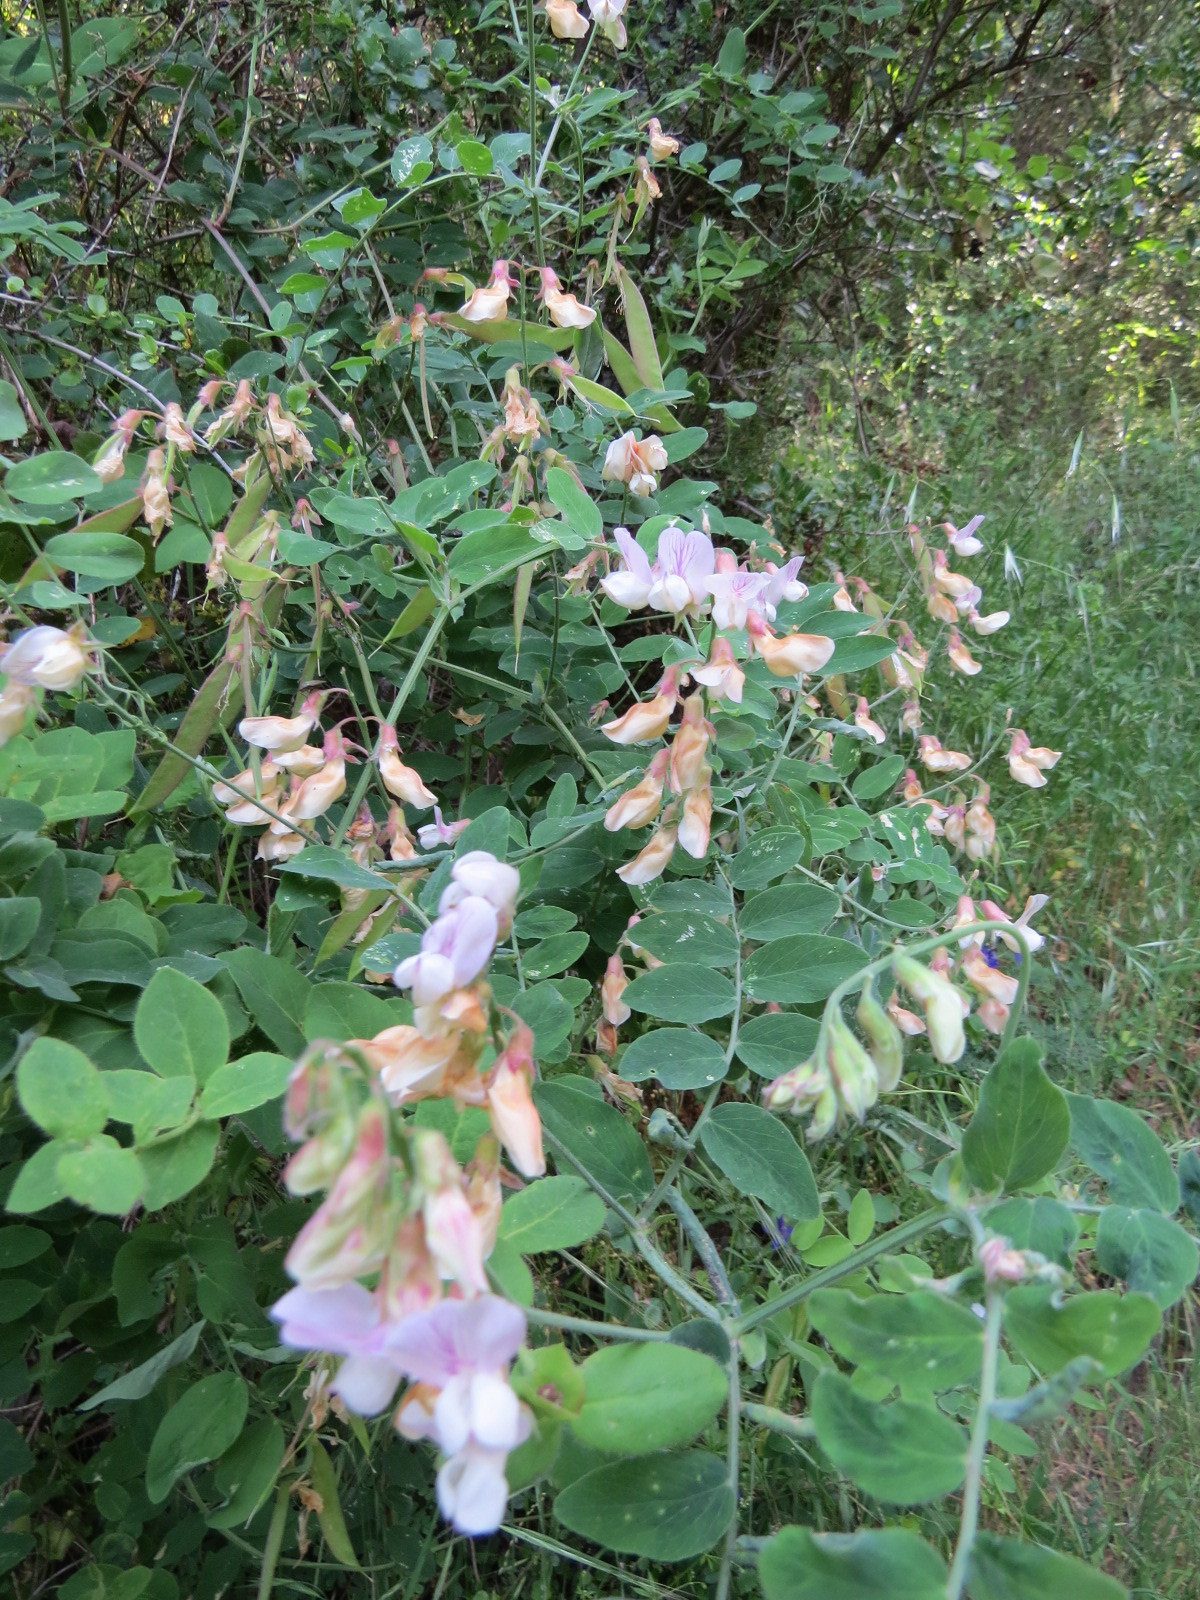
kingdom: Plantae
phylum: Tracheophyta
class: Magnoliopsida
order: Fabales
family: Fabaceae
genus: Lathyrus
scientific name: Lathyrus vestitus
